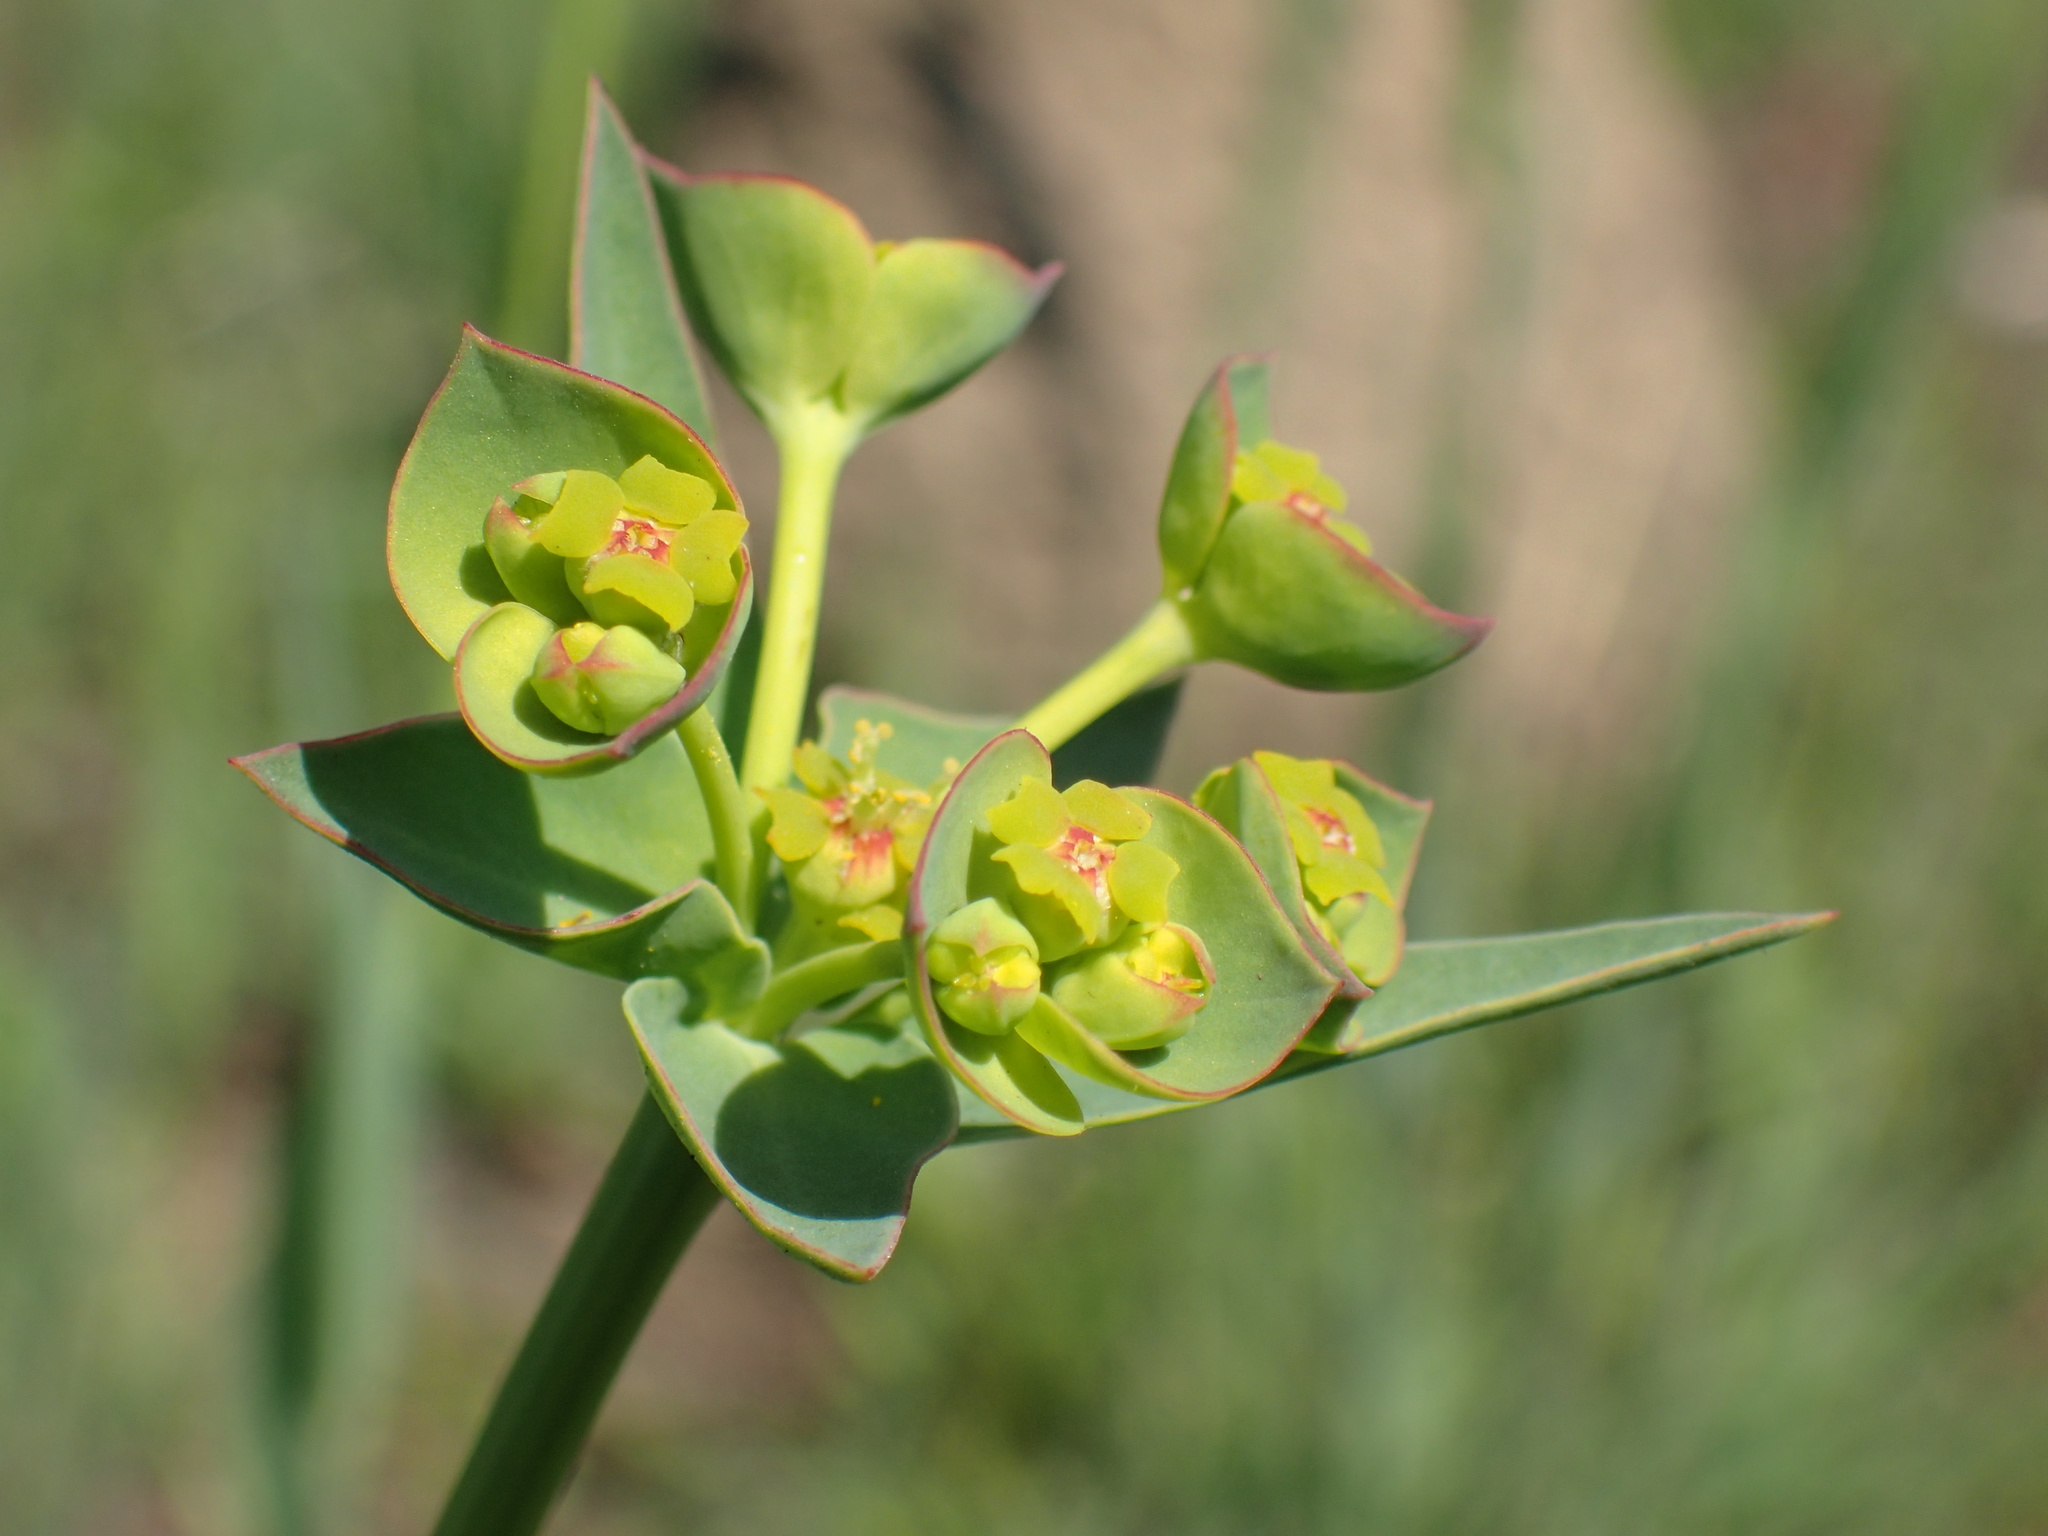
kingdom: Plantae
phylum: Tracheophyta
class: Magnoliopsida
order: Malpighiales
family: Euphorbiaceae
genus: Euphorbia
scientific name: Euphorbia striata
